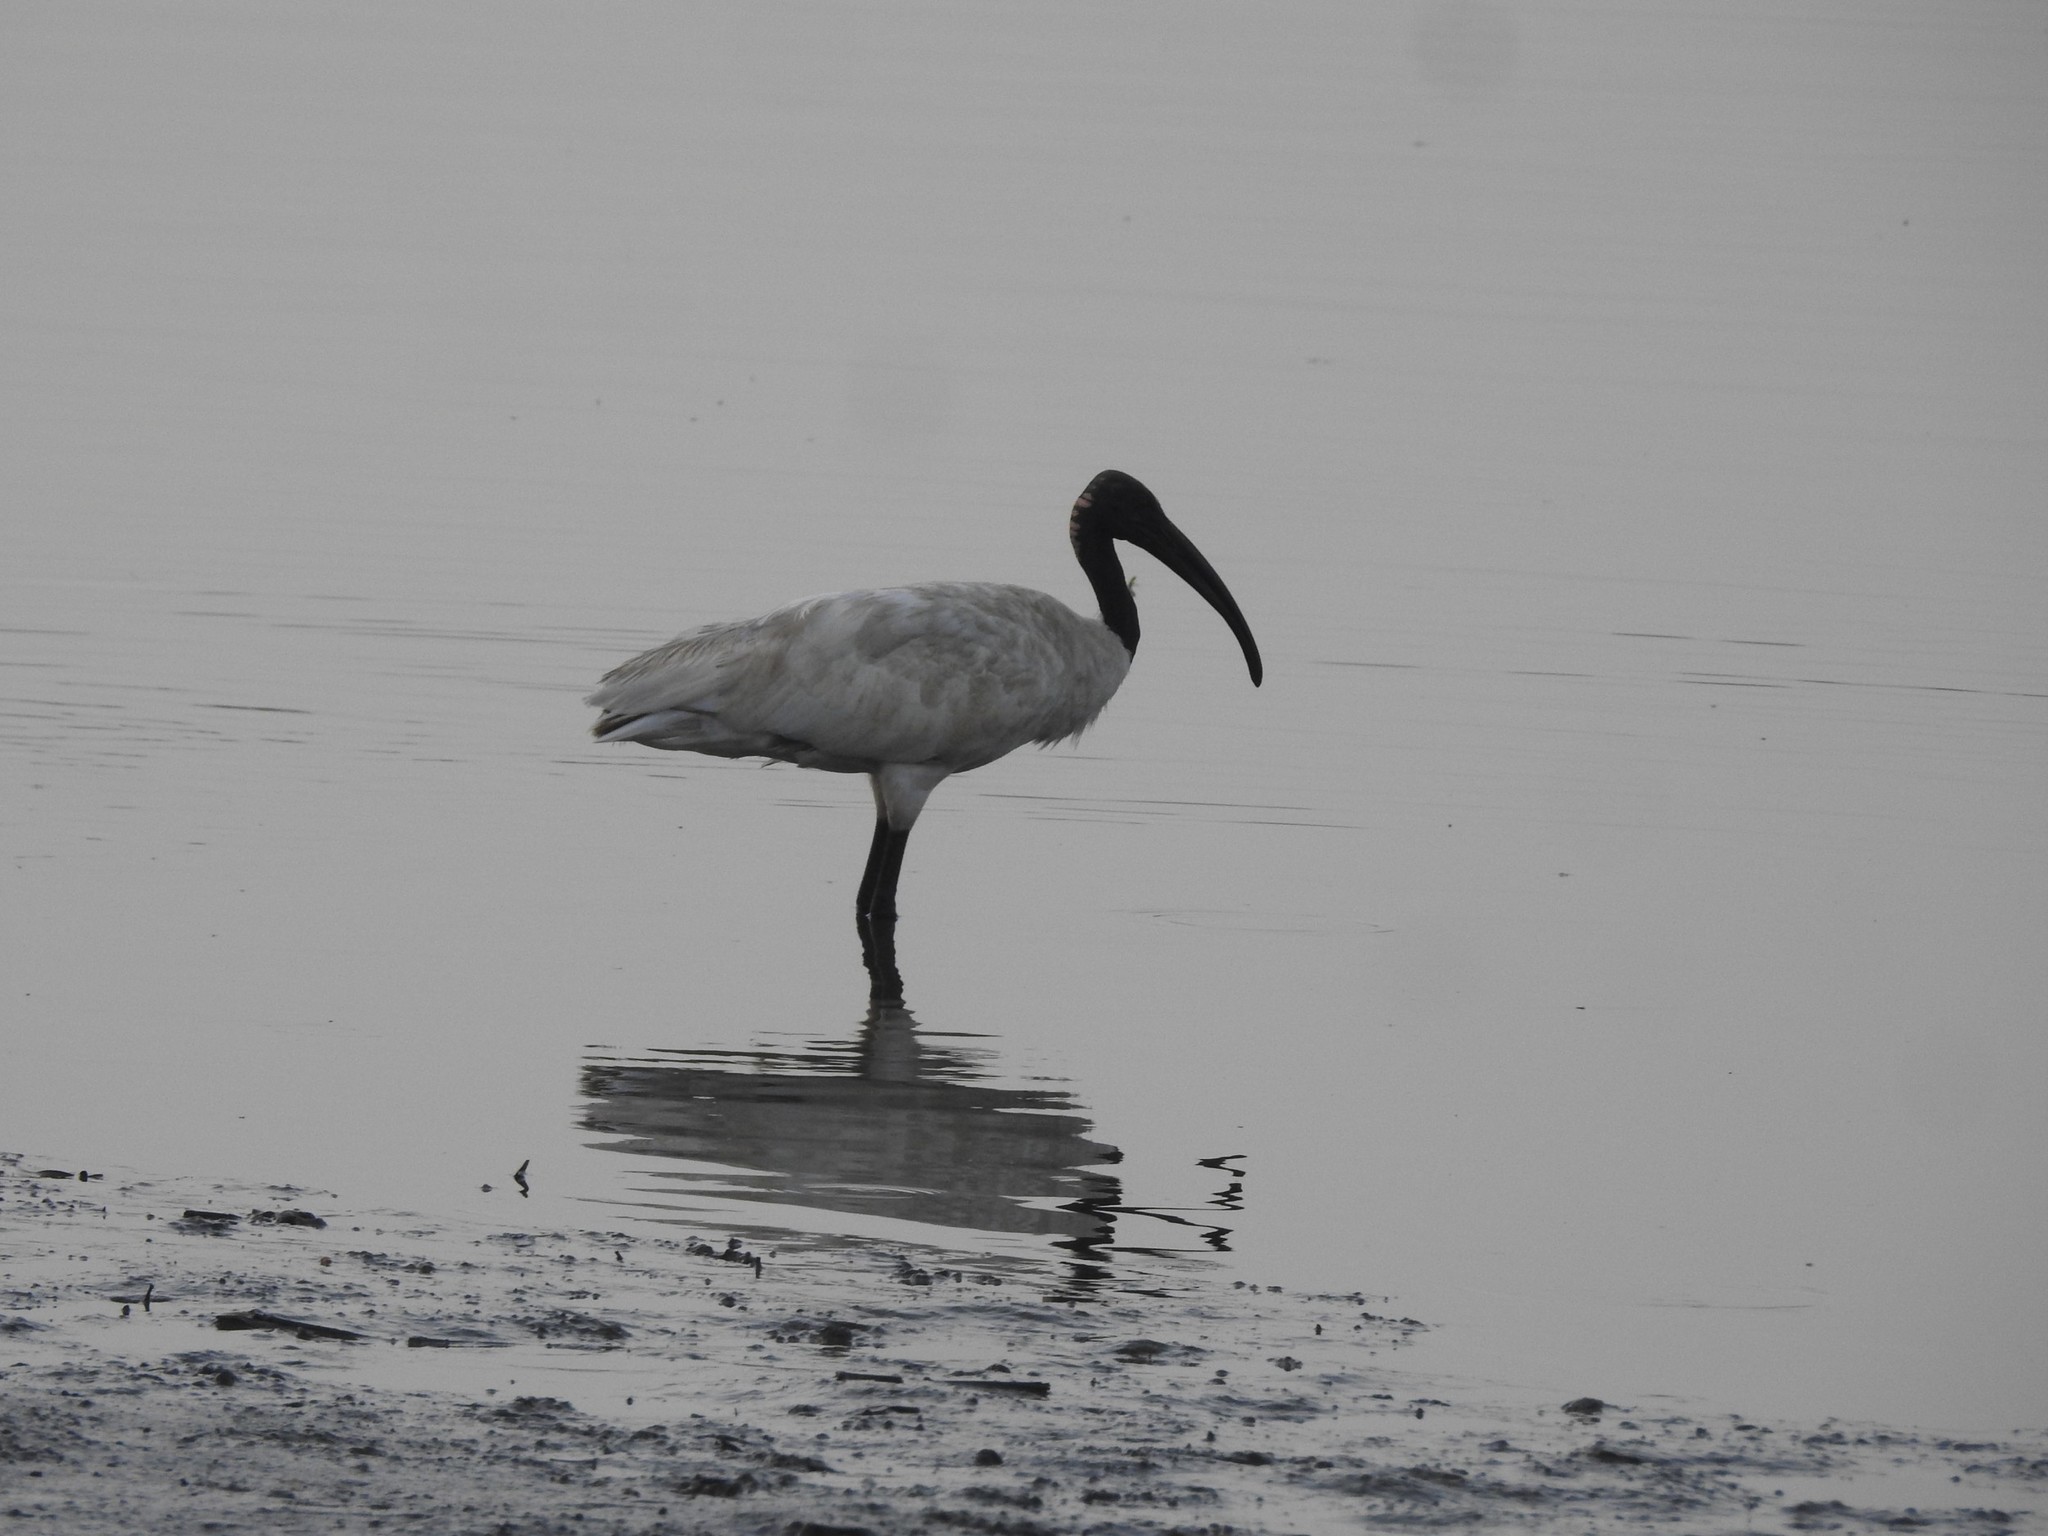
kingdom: Animalia
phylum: Chordata
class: Aves
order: Pelecaniformes
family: Threskiornithidae
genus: Threskiornis
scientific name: Threskiornis melanocephalus
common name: Black-headed ibis
